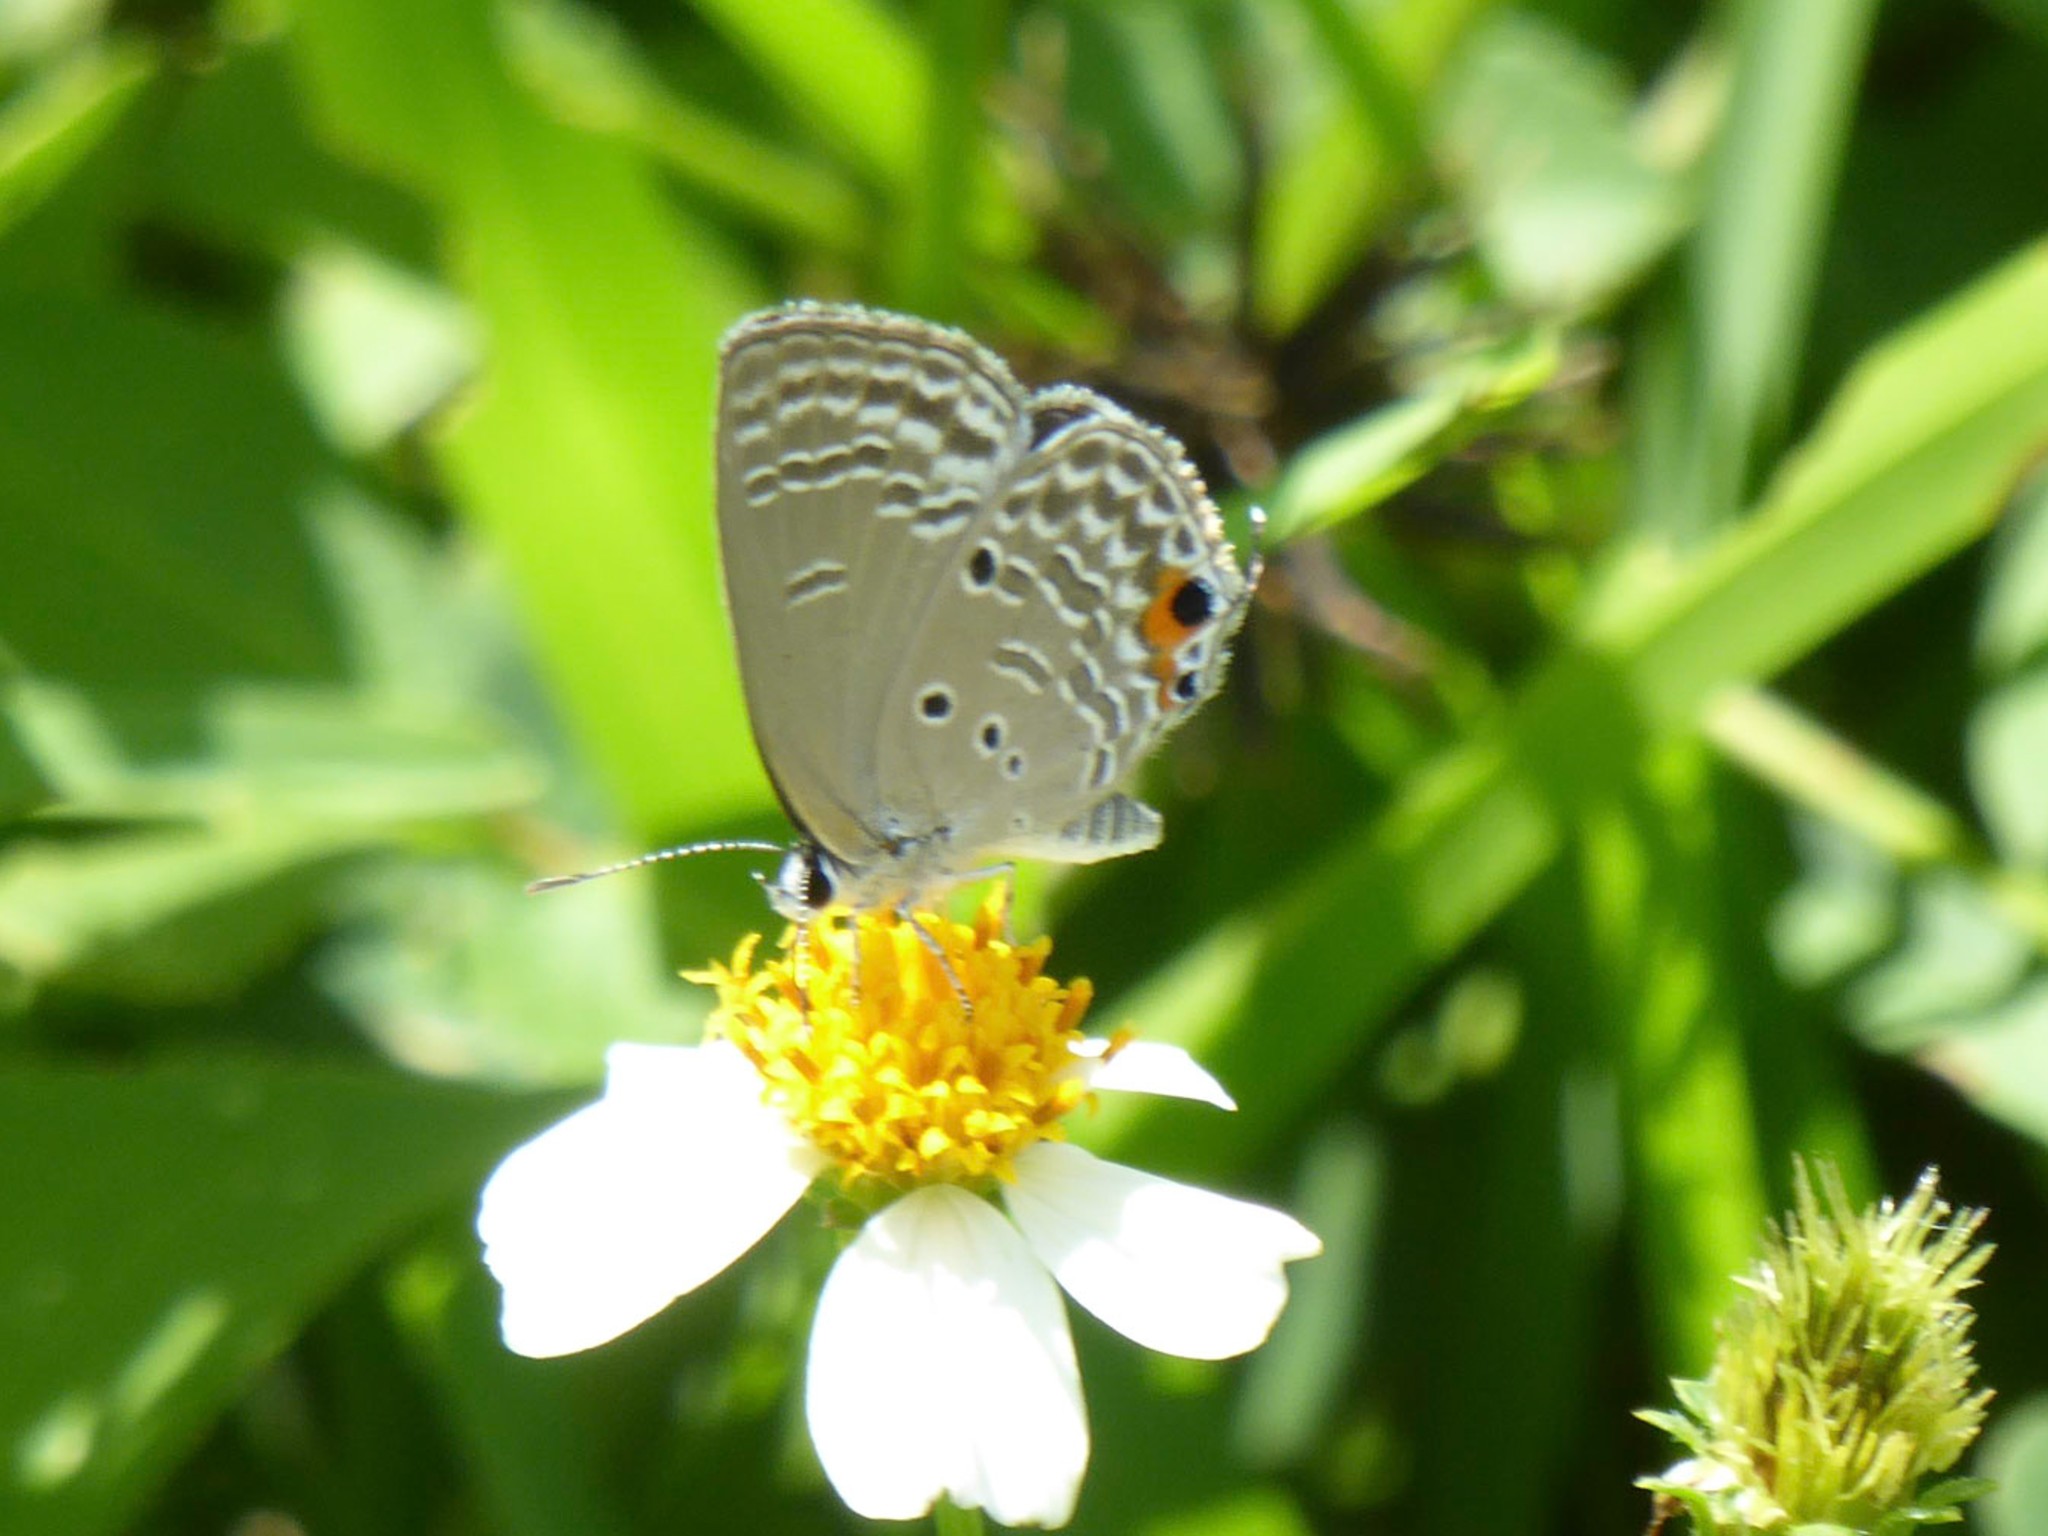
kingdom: Animalia
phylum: Arthropoda
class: Insecta
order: Lepidoptera
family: Lycaenidae
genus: Luthrodes
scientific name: Luthrodes pandava
